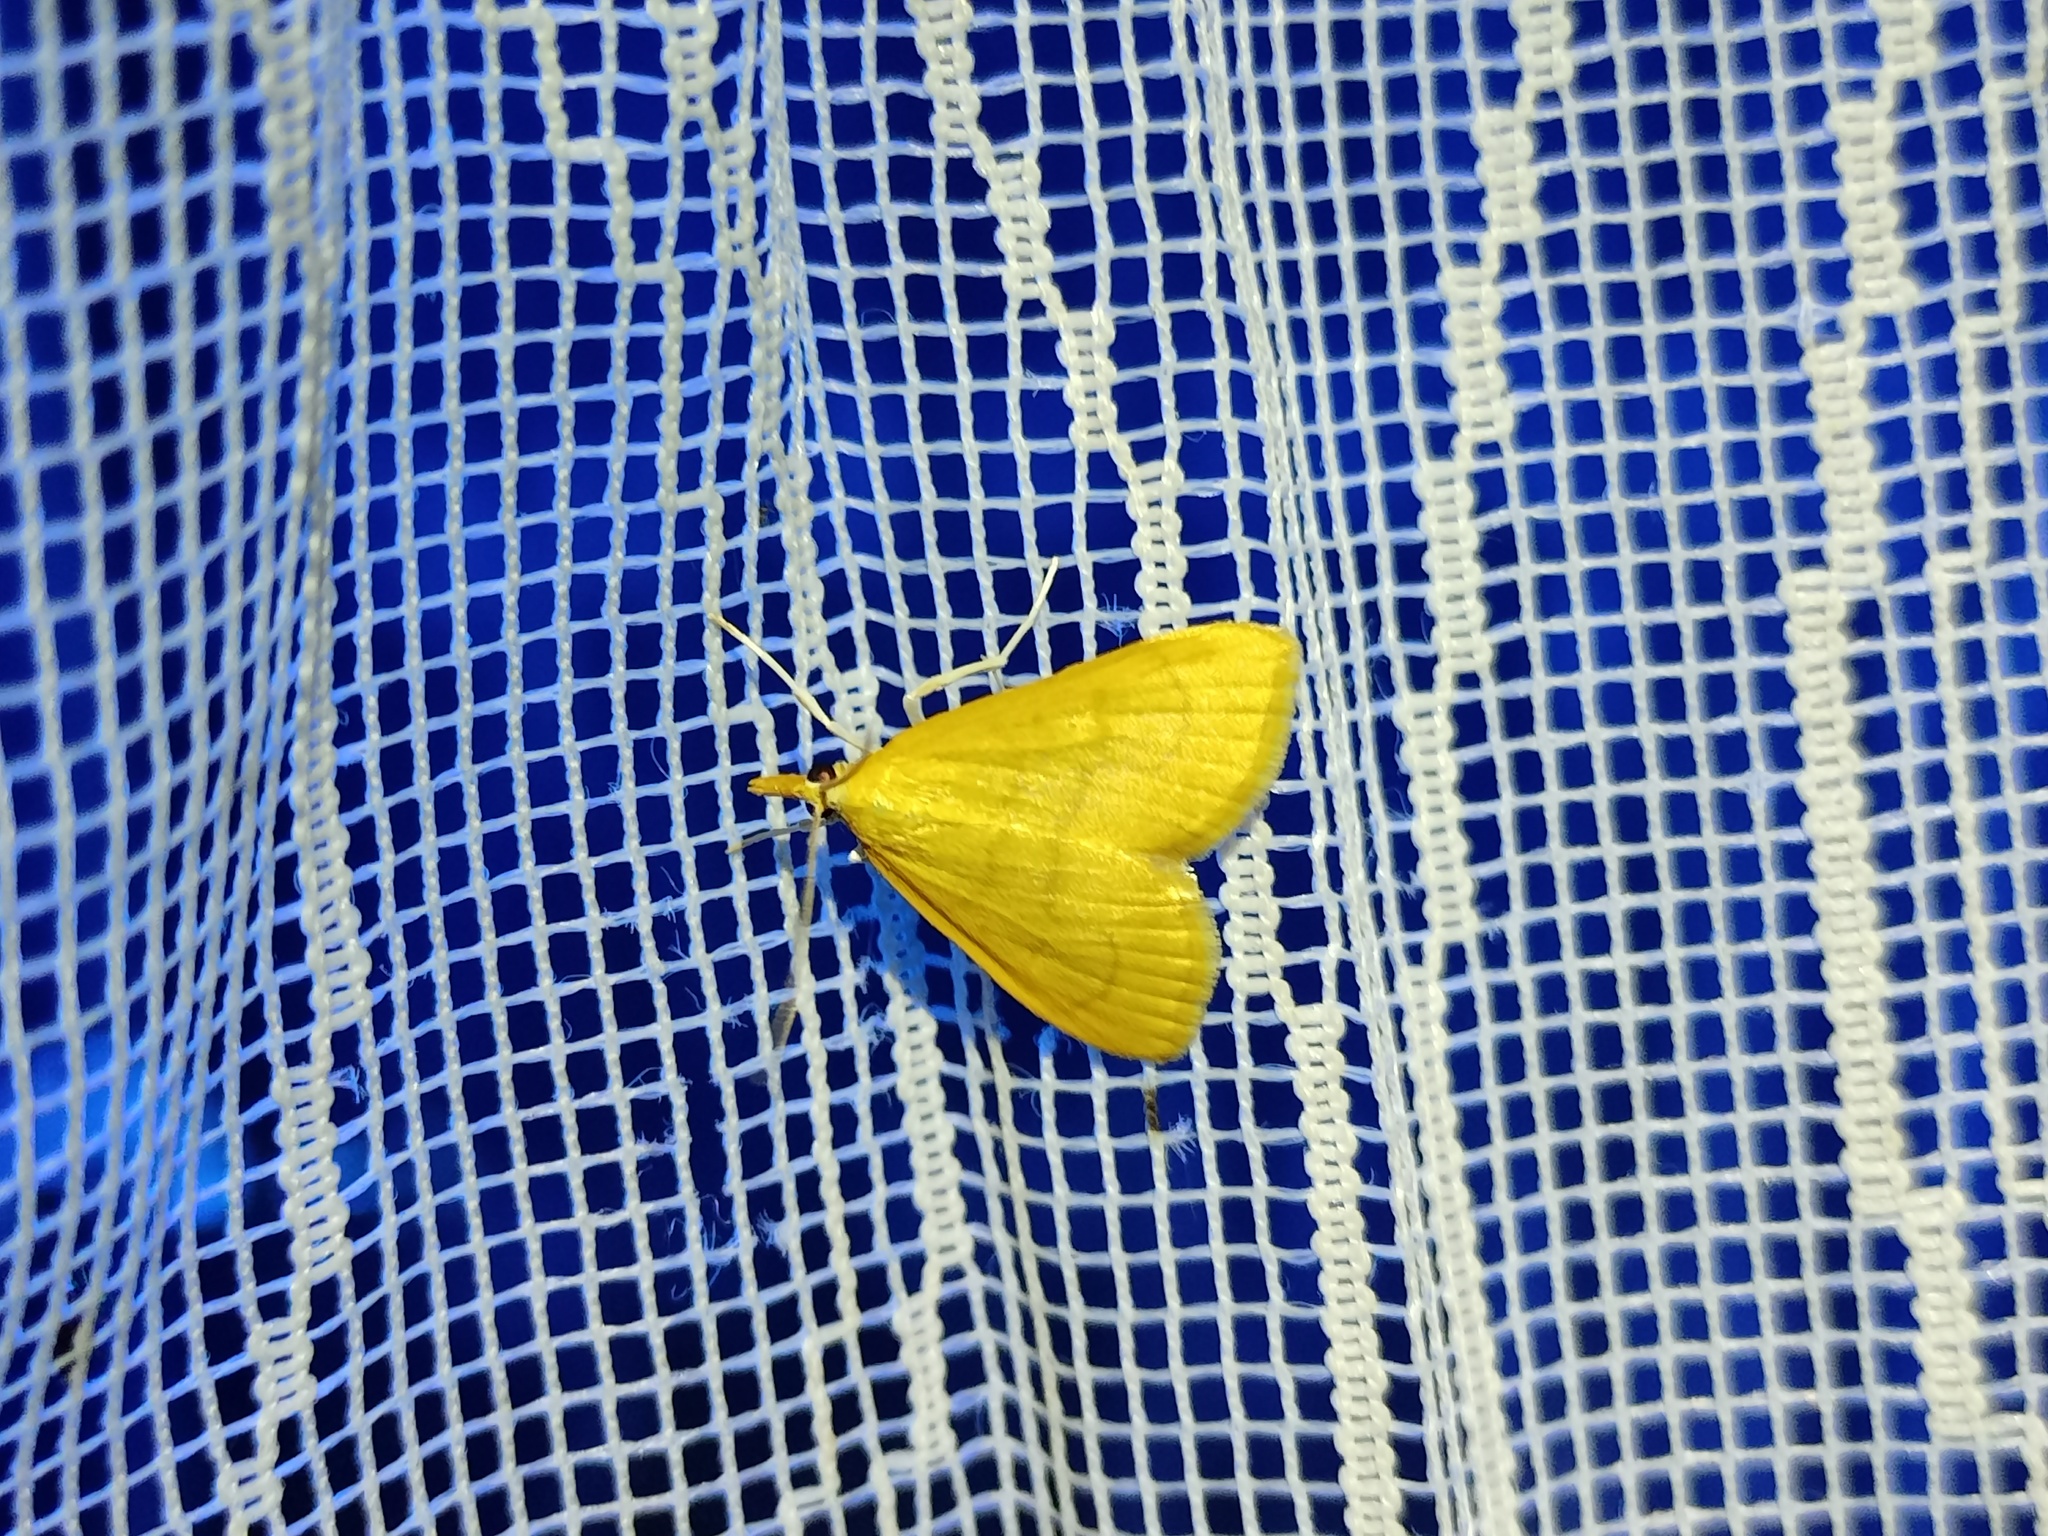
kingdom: Animalia
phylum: Arthropoda
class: Insecta
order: Lepidoptera
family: Crambidae
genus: Anania
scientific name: Anania crocealis
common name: Ochreous pearl
